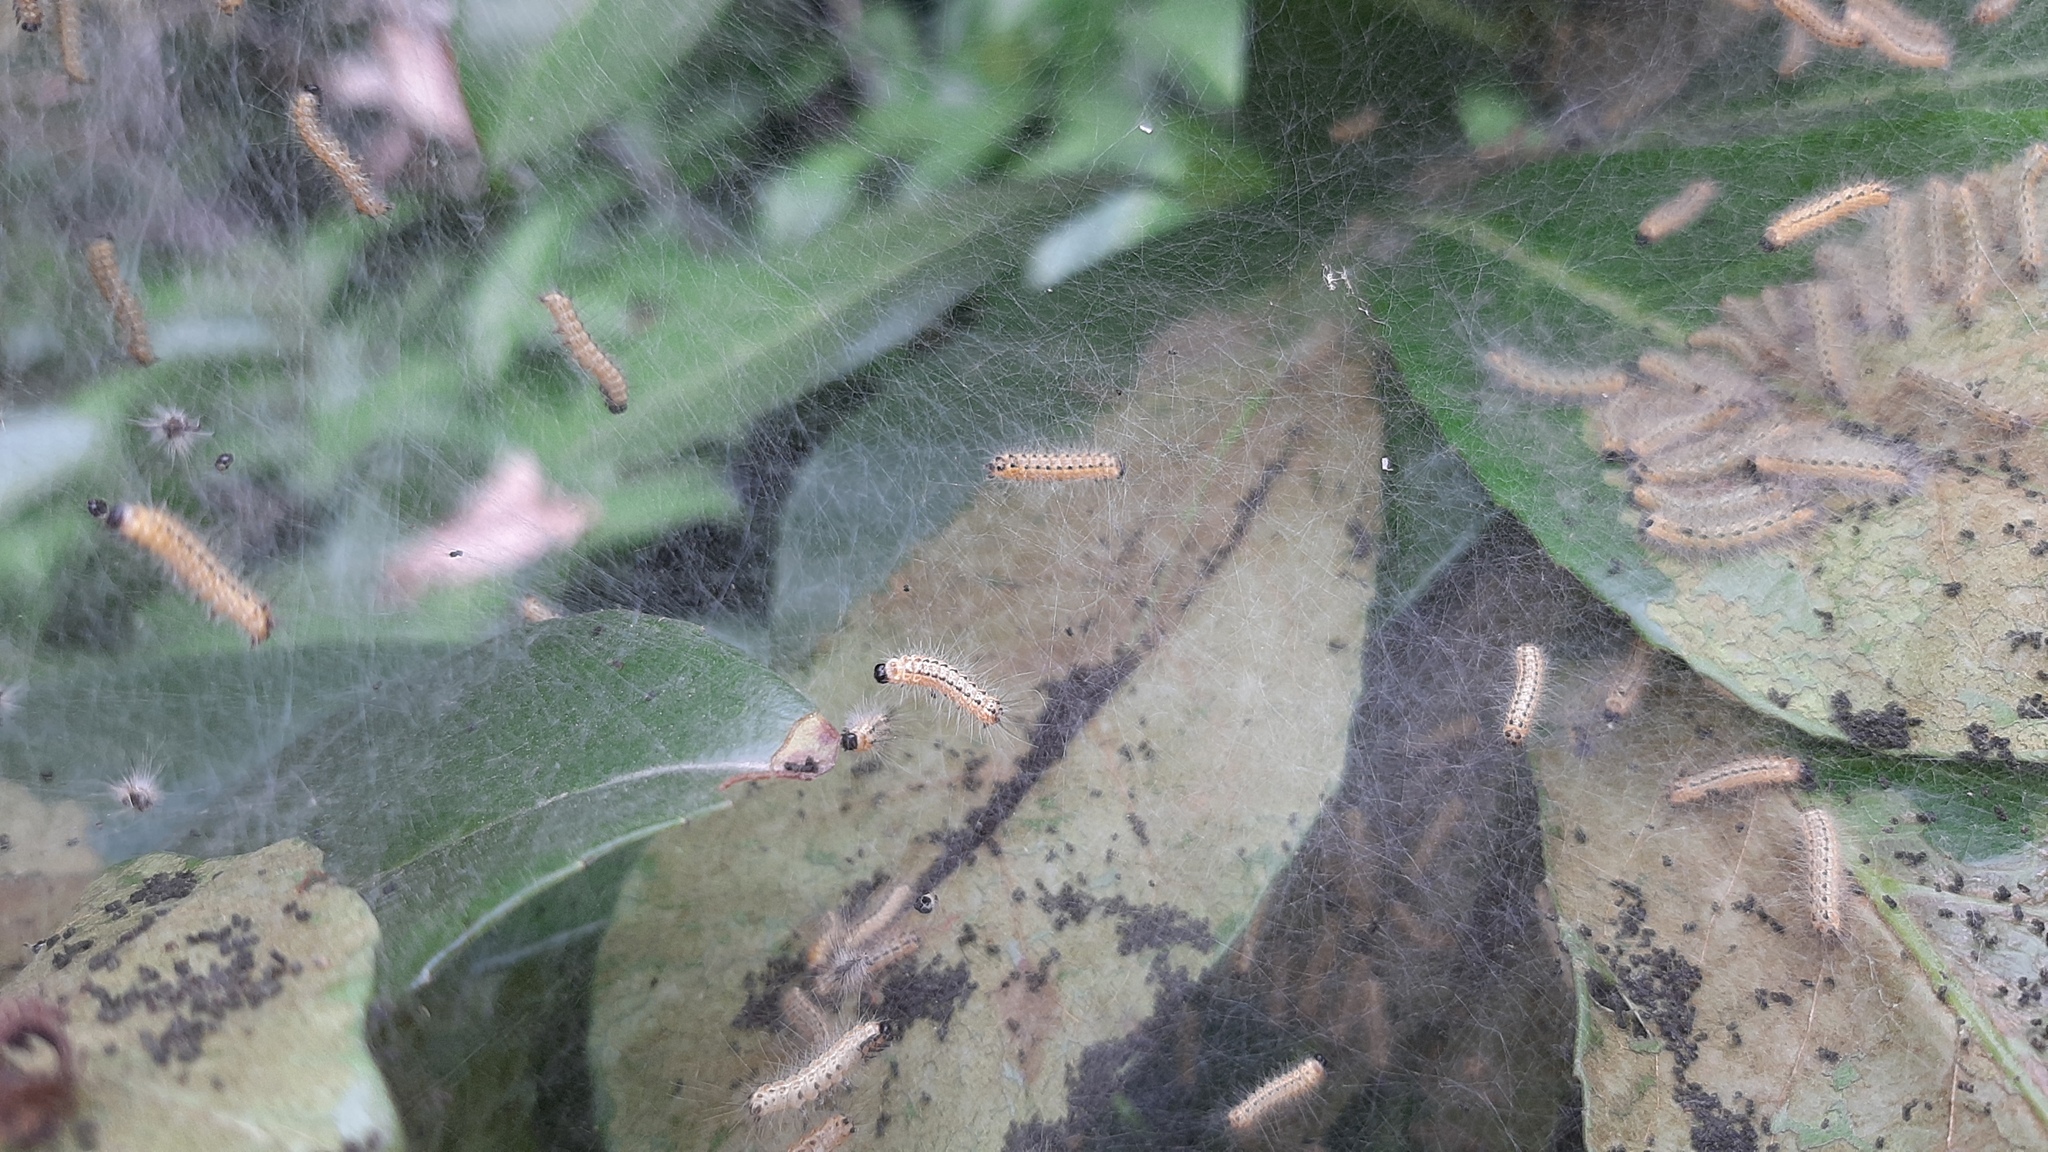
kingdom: Animalia
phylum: Arthropoda
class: Insecta
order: Lepidoptera
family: Erebidae
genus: Hyphantria
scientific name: Hyphantria cunea
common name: American white moth
